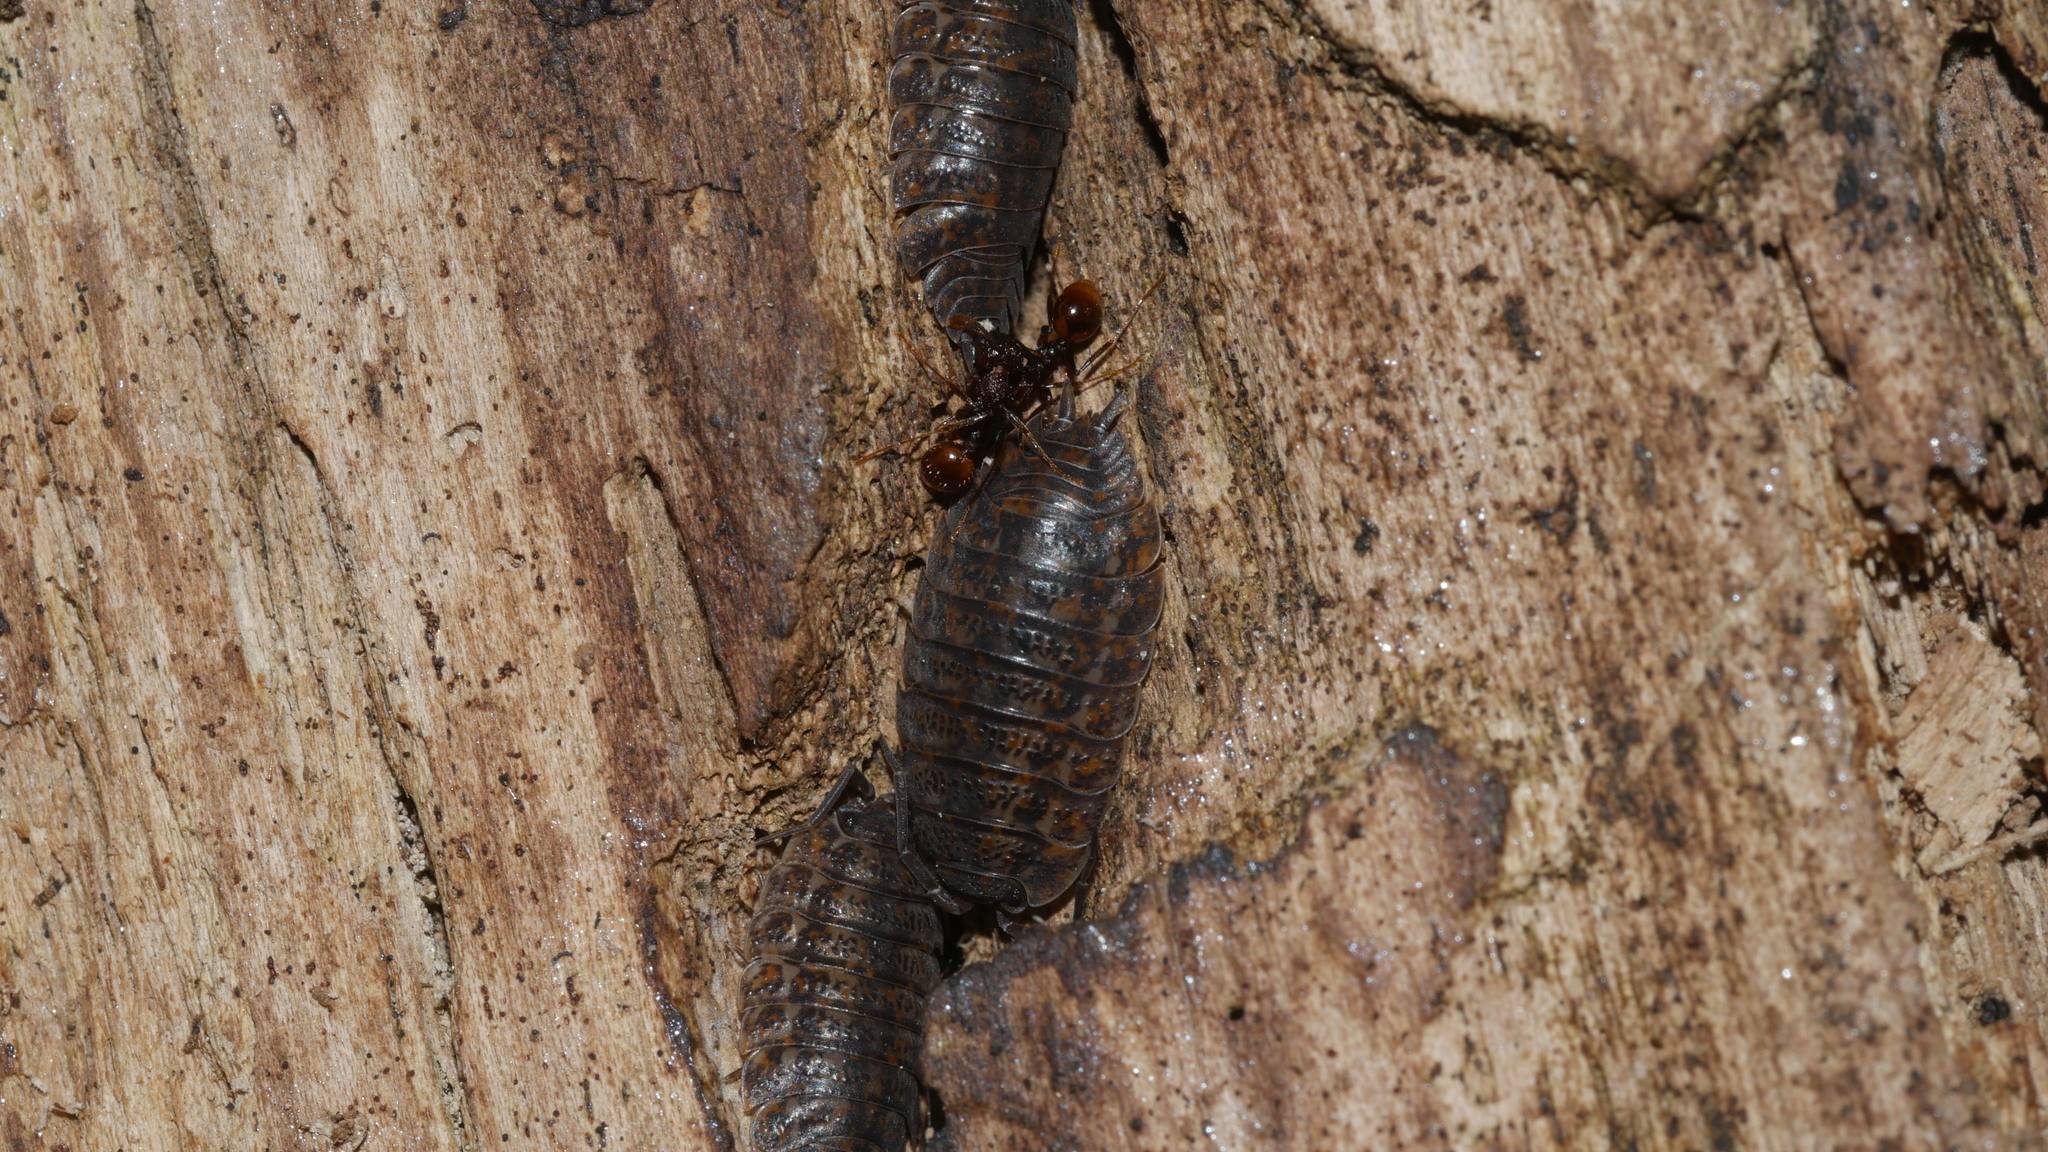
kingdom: Animalia
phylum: Arthropoda
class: Malacostraca
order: Isopoda
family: Trachelipodidae
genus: Trachelipus
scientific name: Trachelipus rathkii
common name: Isopod
